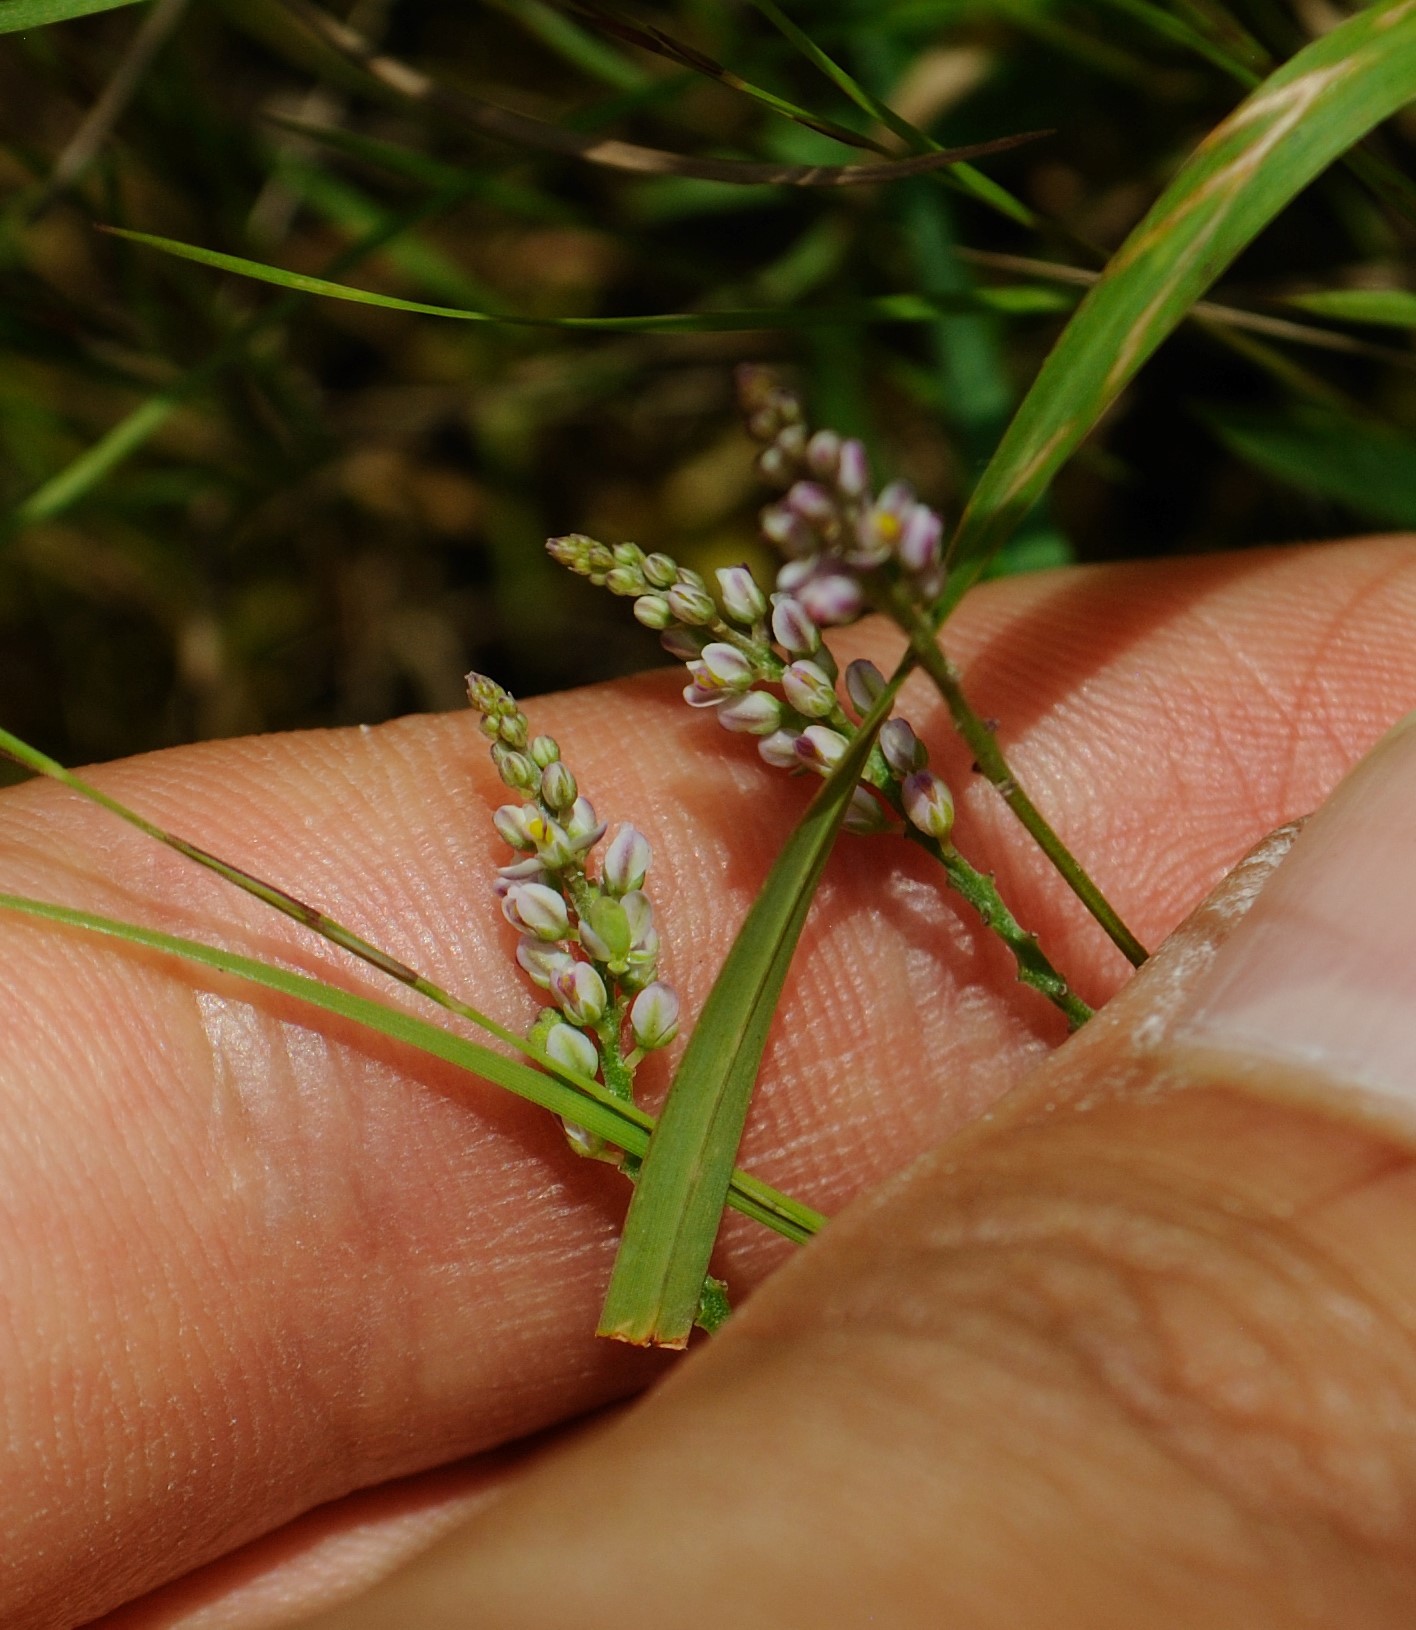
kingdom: Plantae
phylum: Tracheophyta
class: Magnoliopsida
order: Fabales
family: Polygalaceae
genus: Polygala
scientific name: Polygala verticillata
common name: Whorl milkwort
